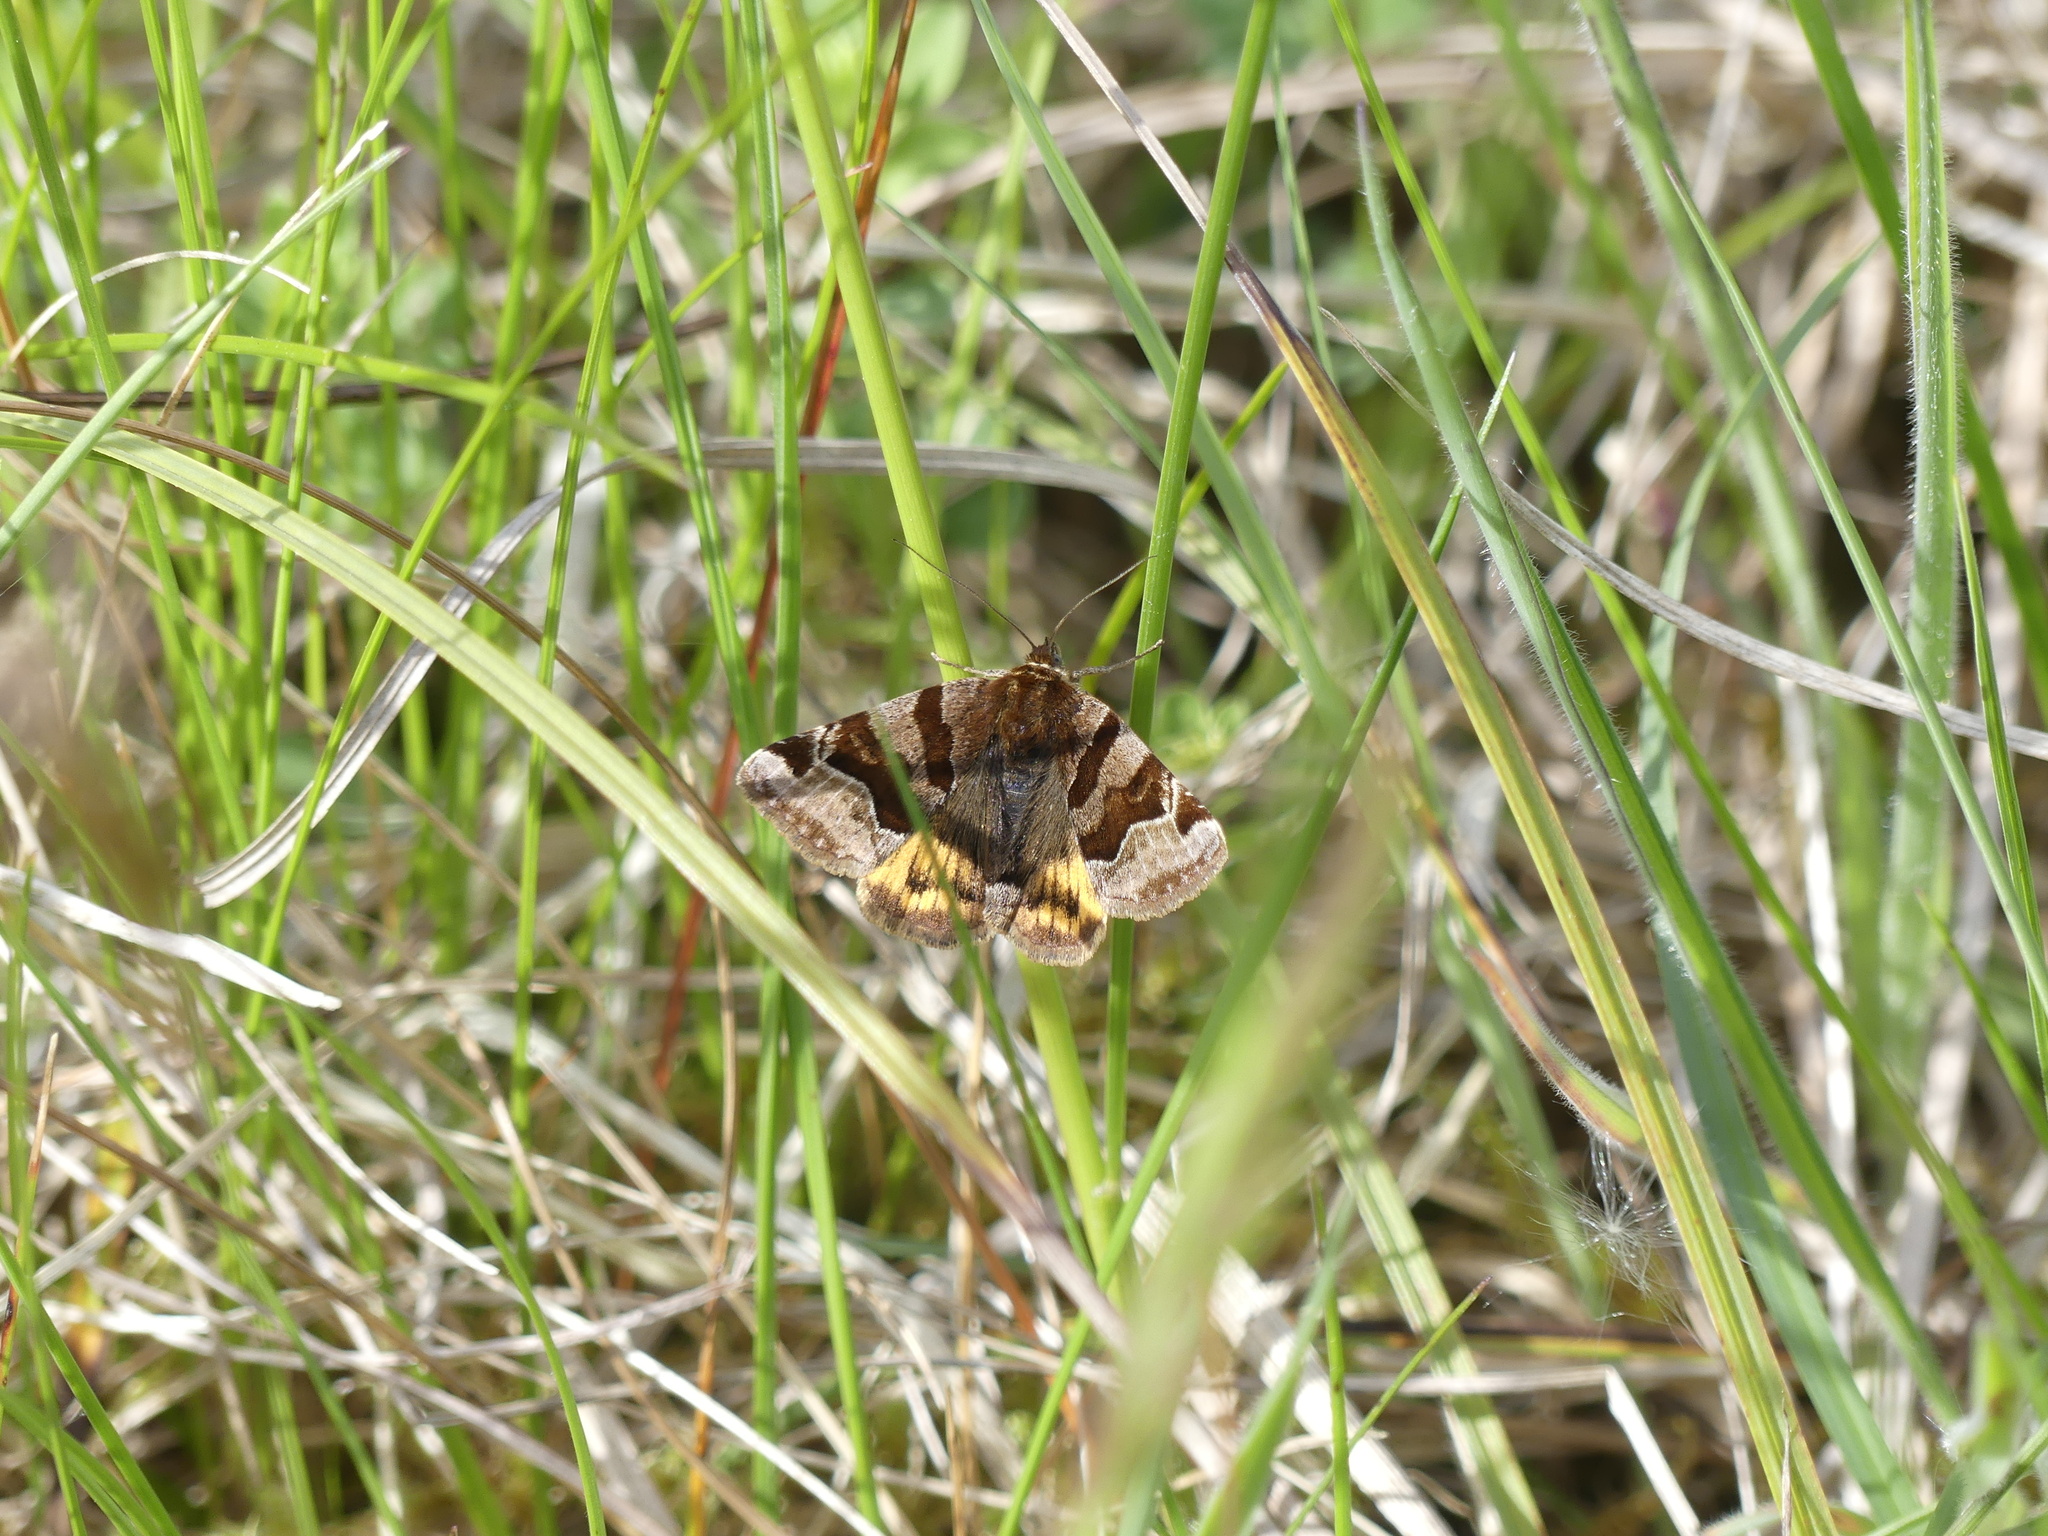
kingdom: Animalia
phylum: Arthropoda
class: Insecta
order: Lepidoptera
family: Erebidae
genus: Euclidia
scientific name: Euclidia glyphica
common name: Burnet companion
